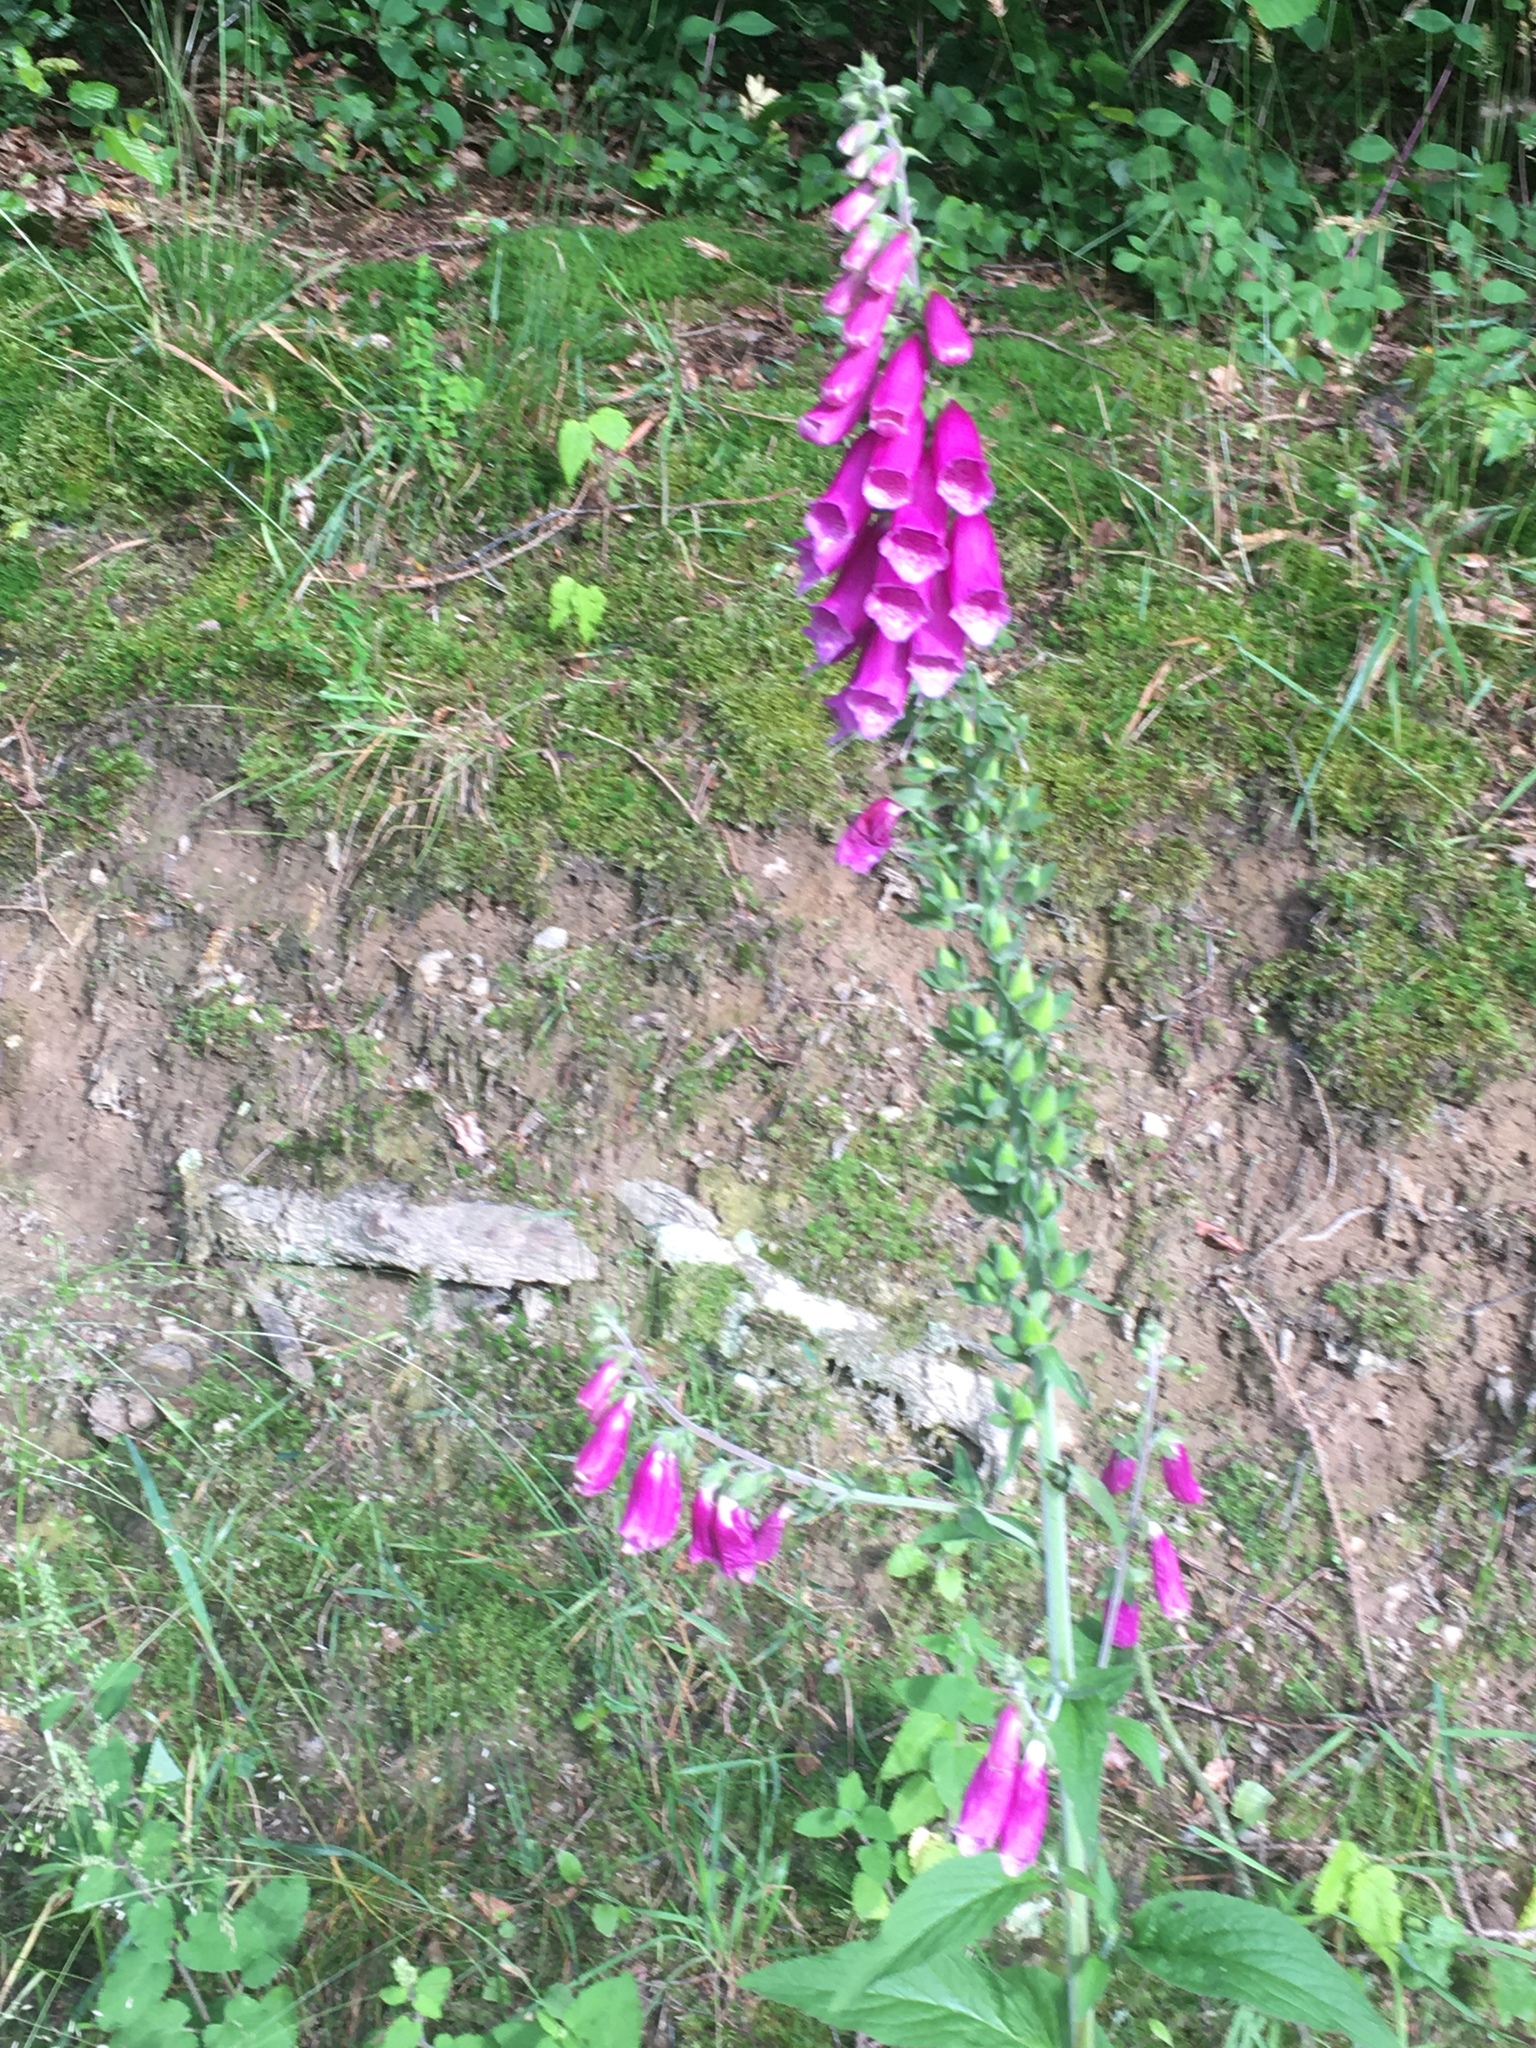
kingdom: Plantae
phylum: Tracheophyta
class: Magnoliopsida
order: Lamiales
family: Plantaginaceae
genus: Digitalis
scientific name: Digitalis purpurea
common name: Foxglove
